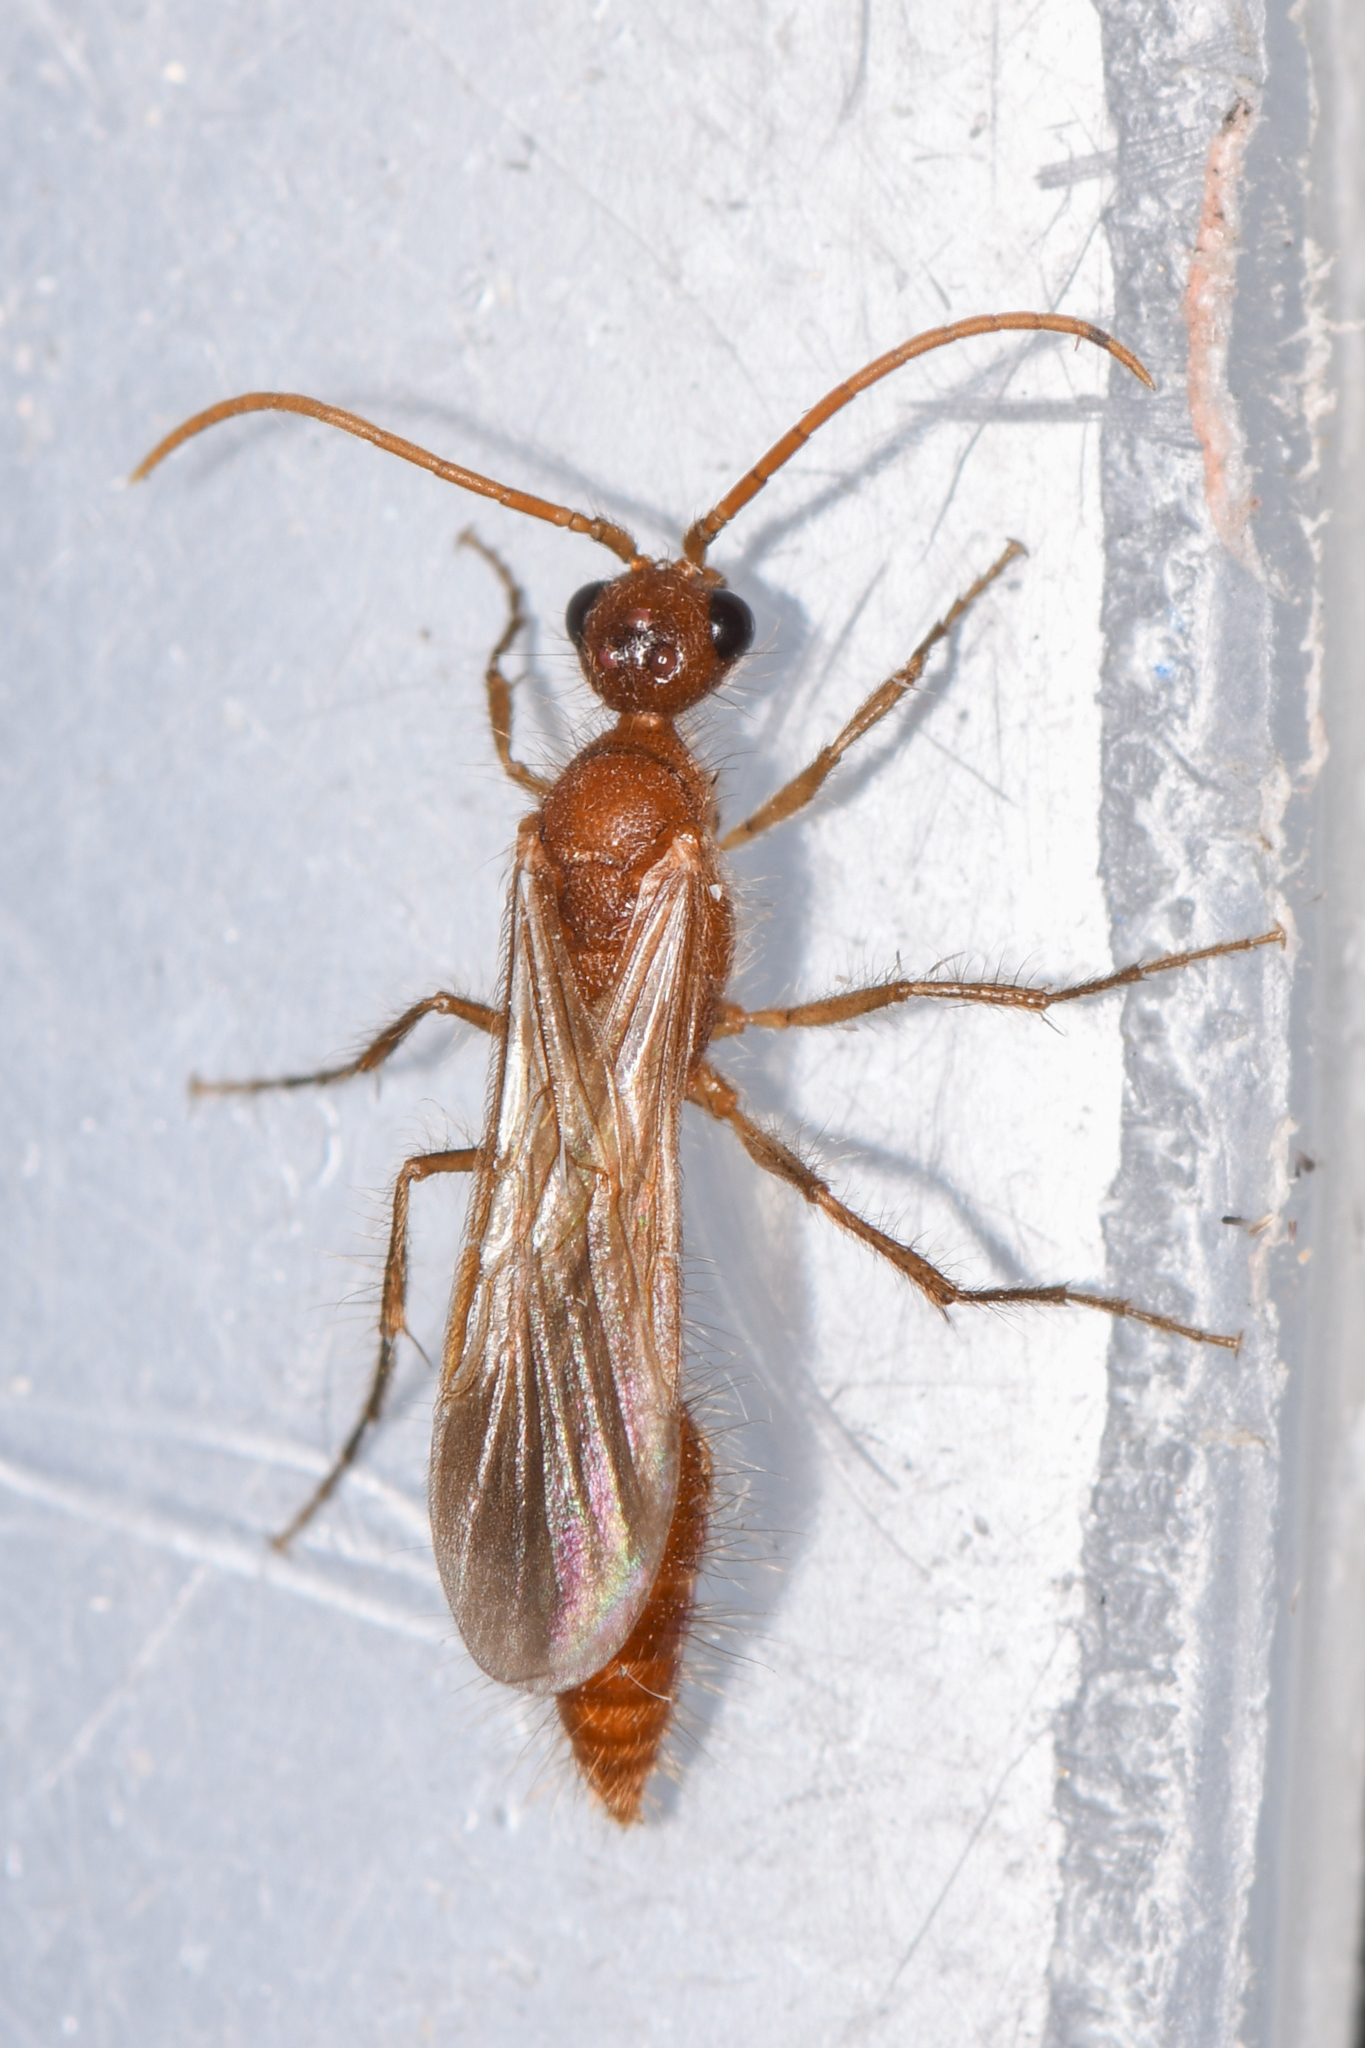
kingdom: Animalia
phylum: Arthropoda
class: Insecta
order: Hymenoptera
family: Chyphotidae
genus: Chyphotes
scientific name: Chyphotes
